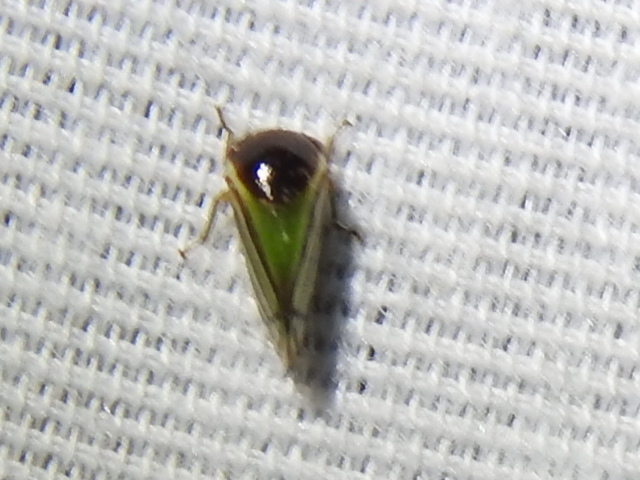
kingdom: Animalia
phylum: Arthropoda
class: Insecta
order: Hemiptera
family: Membracidae
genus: Acutalis
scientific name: Acutalis tartarea
